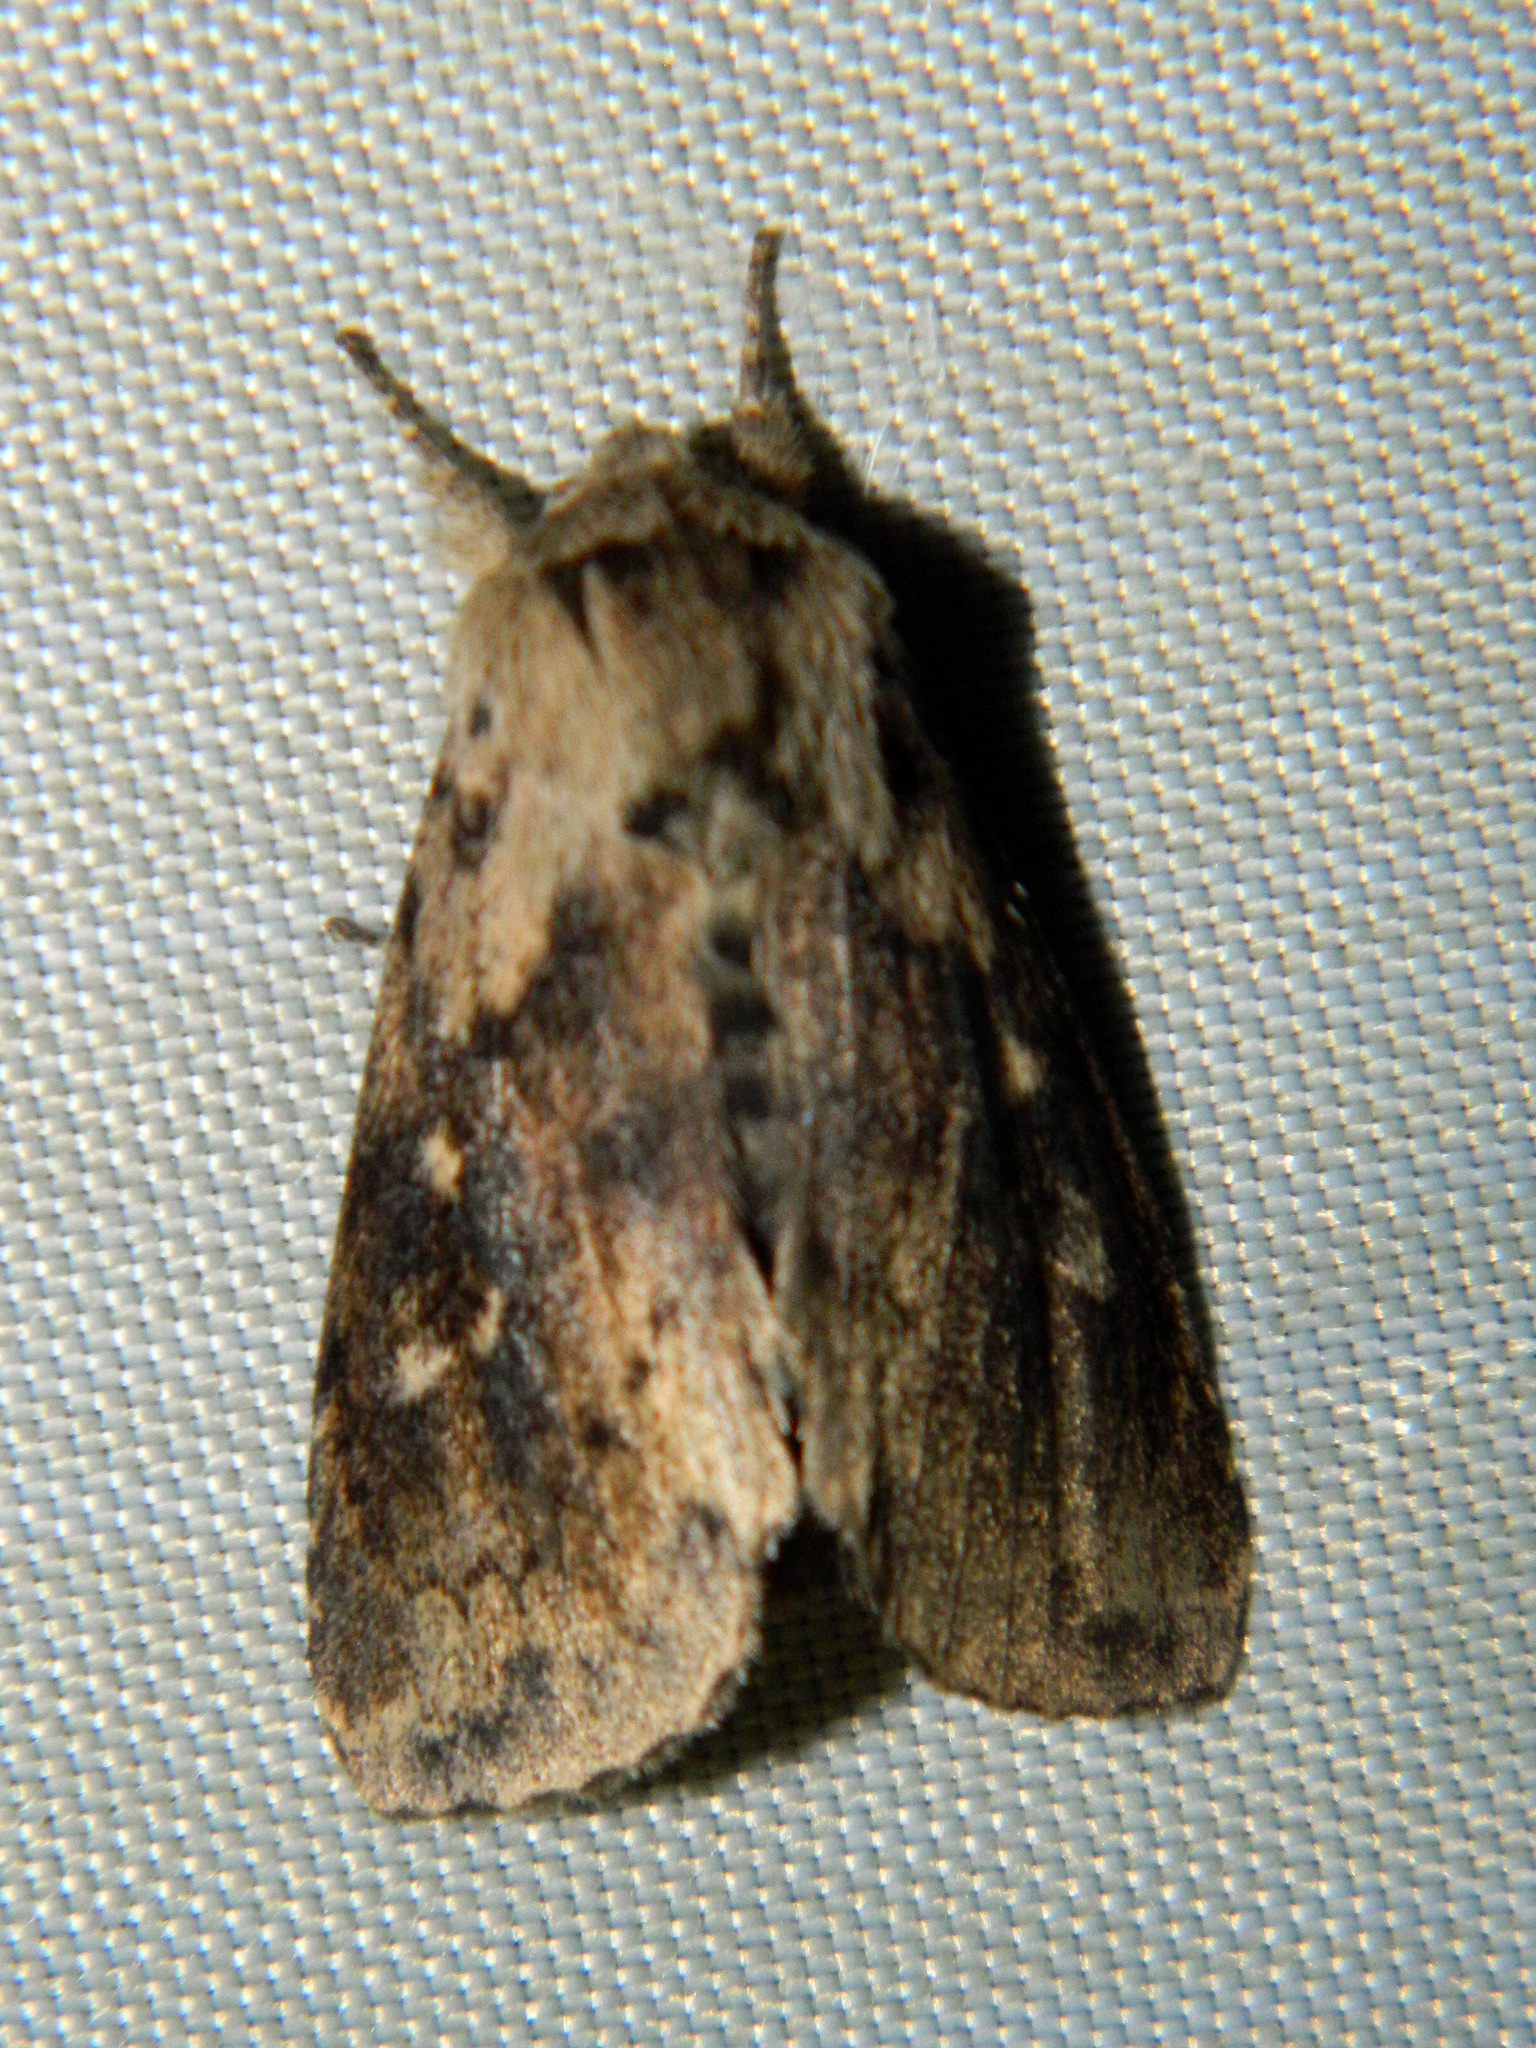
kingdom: Animalia
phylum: Arthropoda
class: Insecta
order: Lepidoptera
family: Noctuidae
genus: Bellura
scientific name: Bellura vulnifica
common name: Black-tailed diver moth
